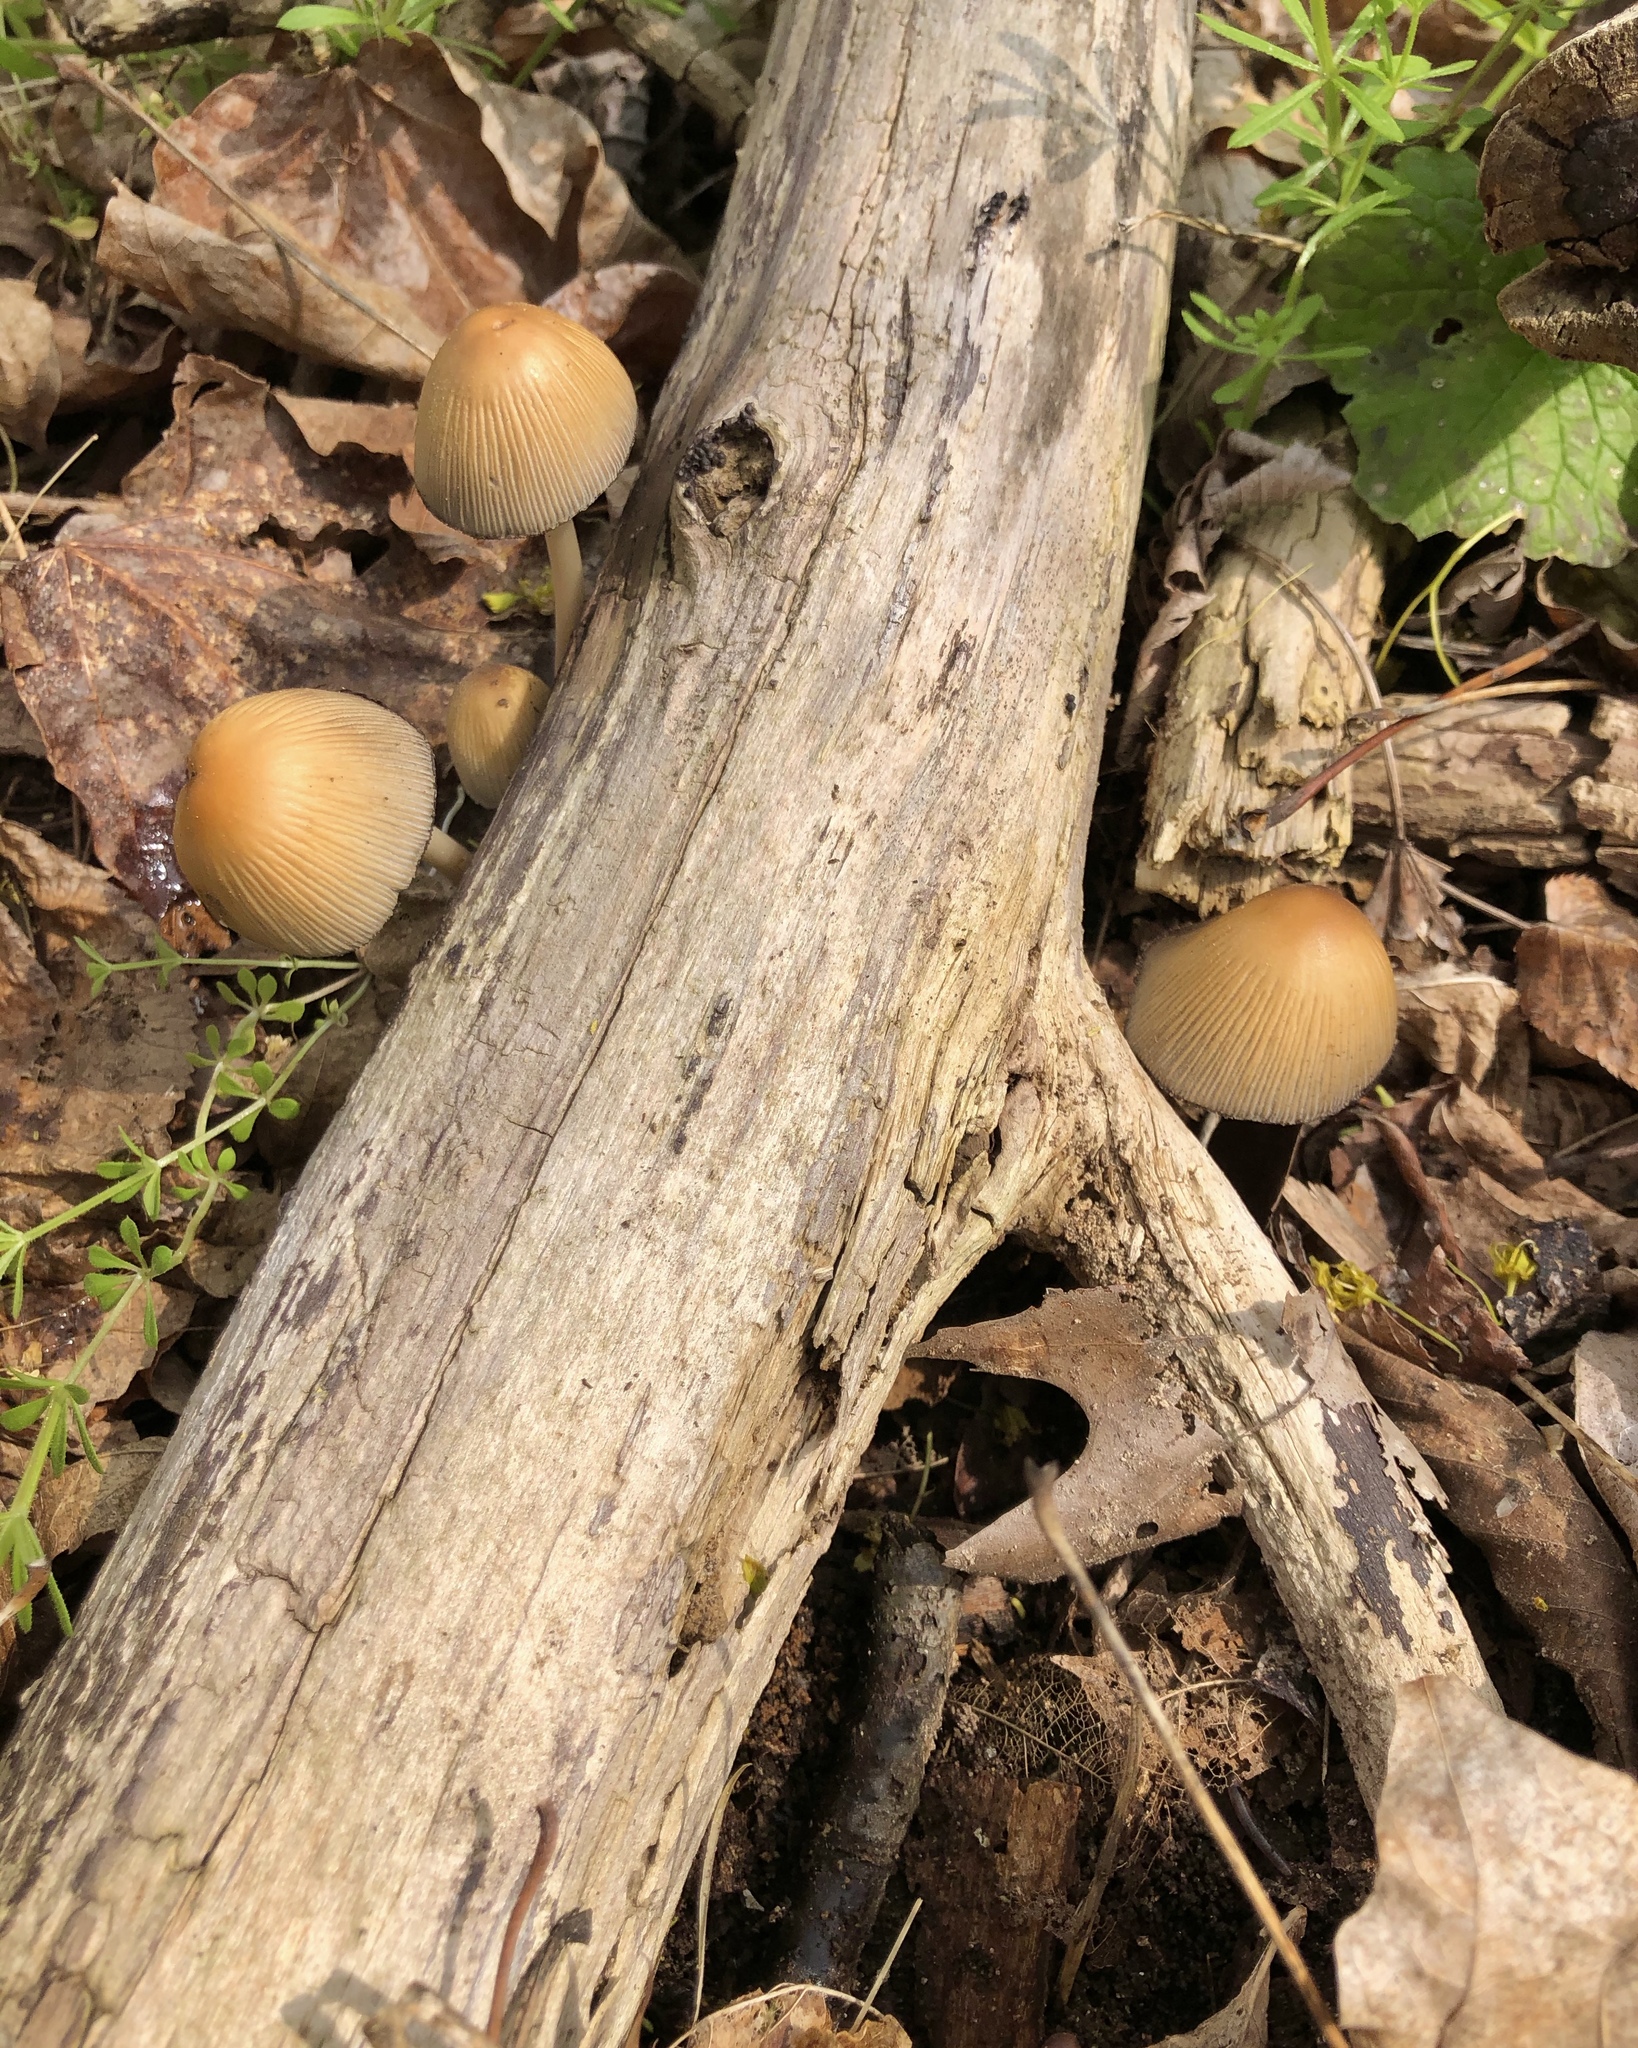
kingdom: Fungi
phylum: Basidiomycota
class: Agaricomycetes
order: Agaricales
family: Psathyrellaceae
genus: Coprinellus
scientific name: Coprinellus micaceus
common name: Glistening ink-cap
